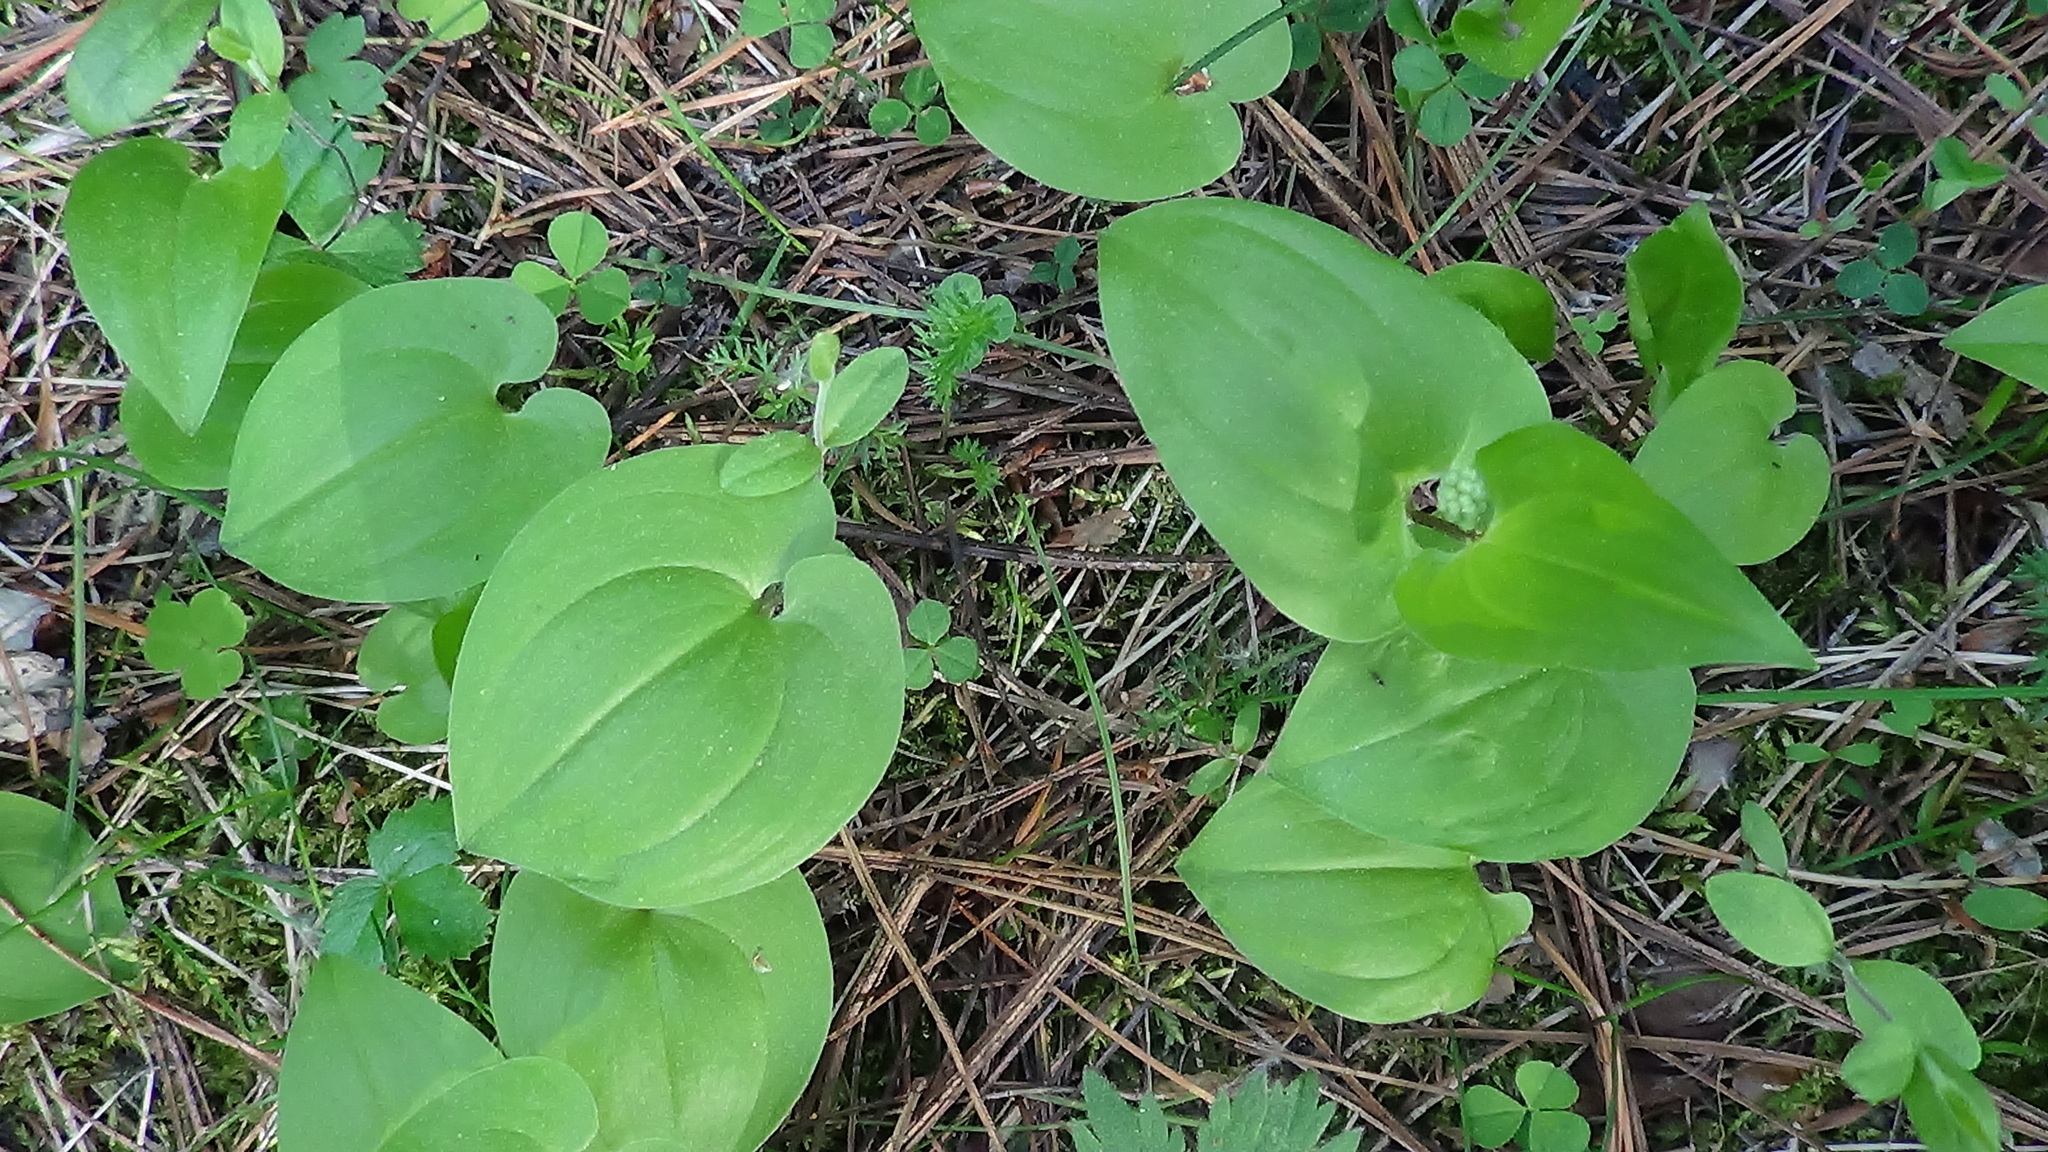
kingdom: Plantae
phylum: Tracheophyta
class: Liliopsida
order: Asparagales
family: Asparagaceae
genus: Maianthemum
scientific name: Maianthemum bifolium
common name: May lily
